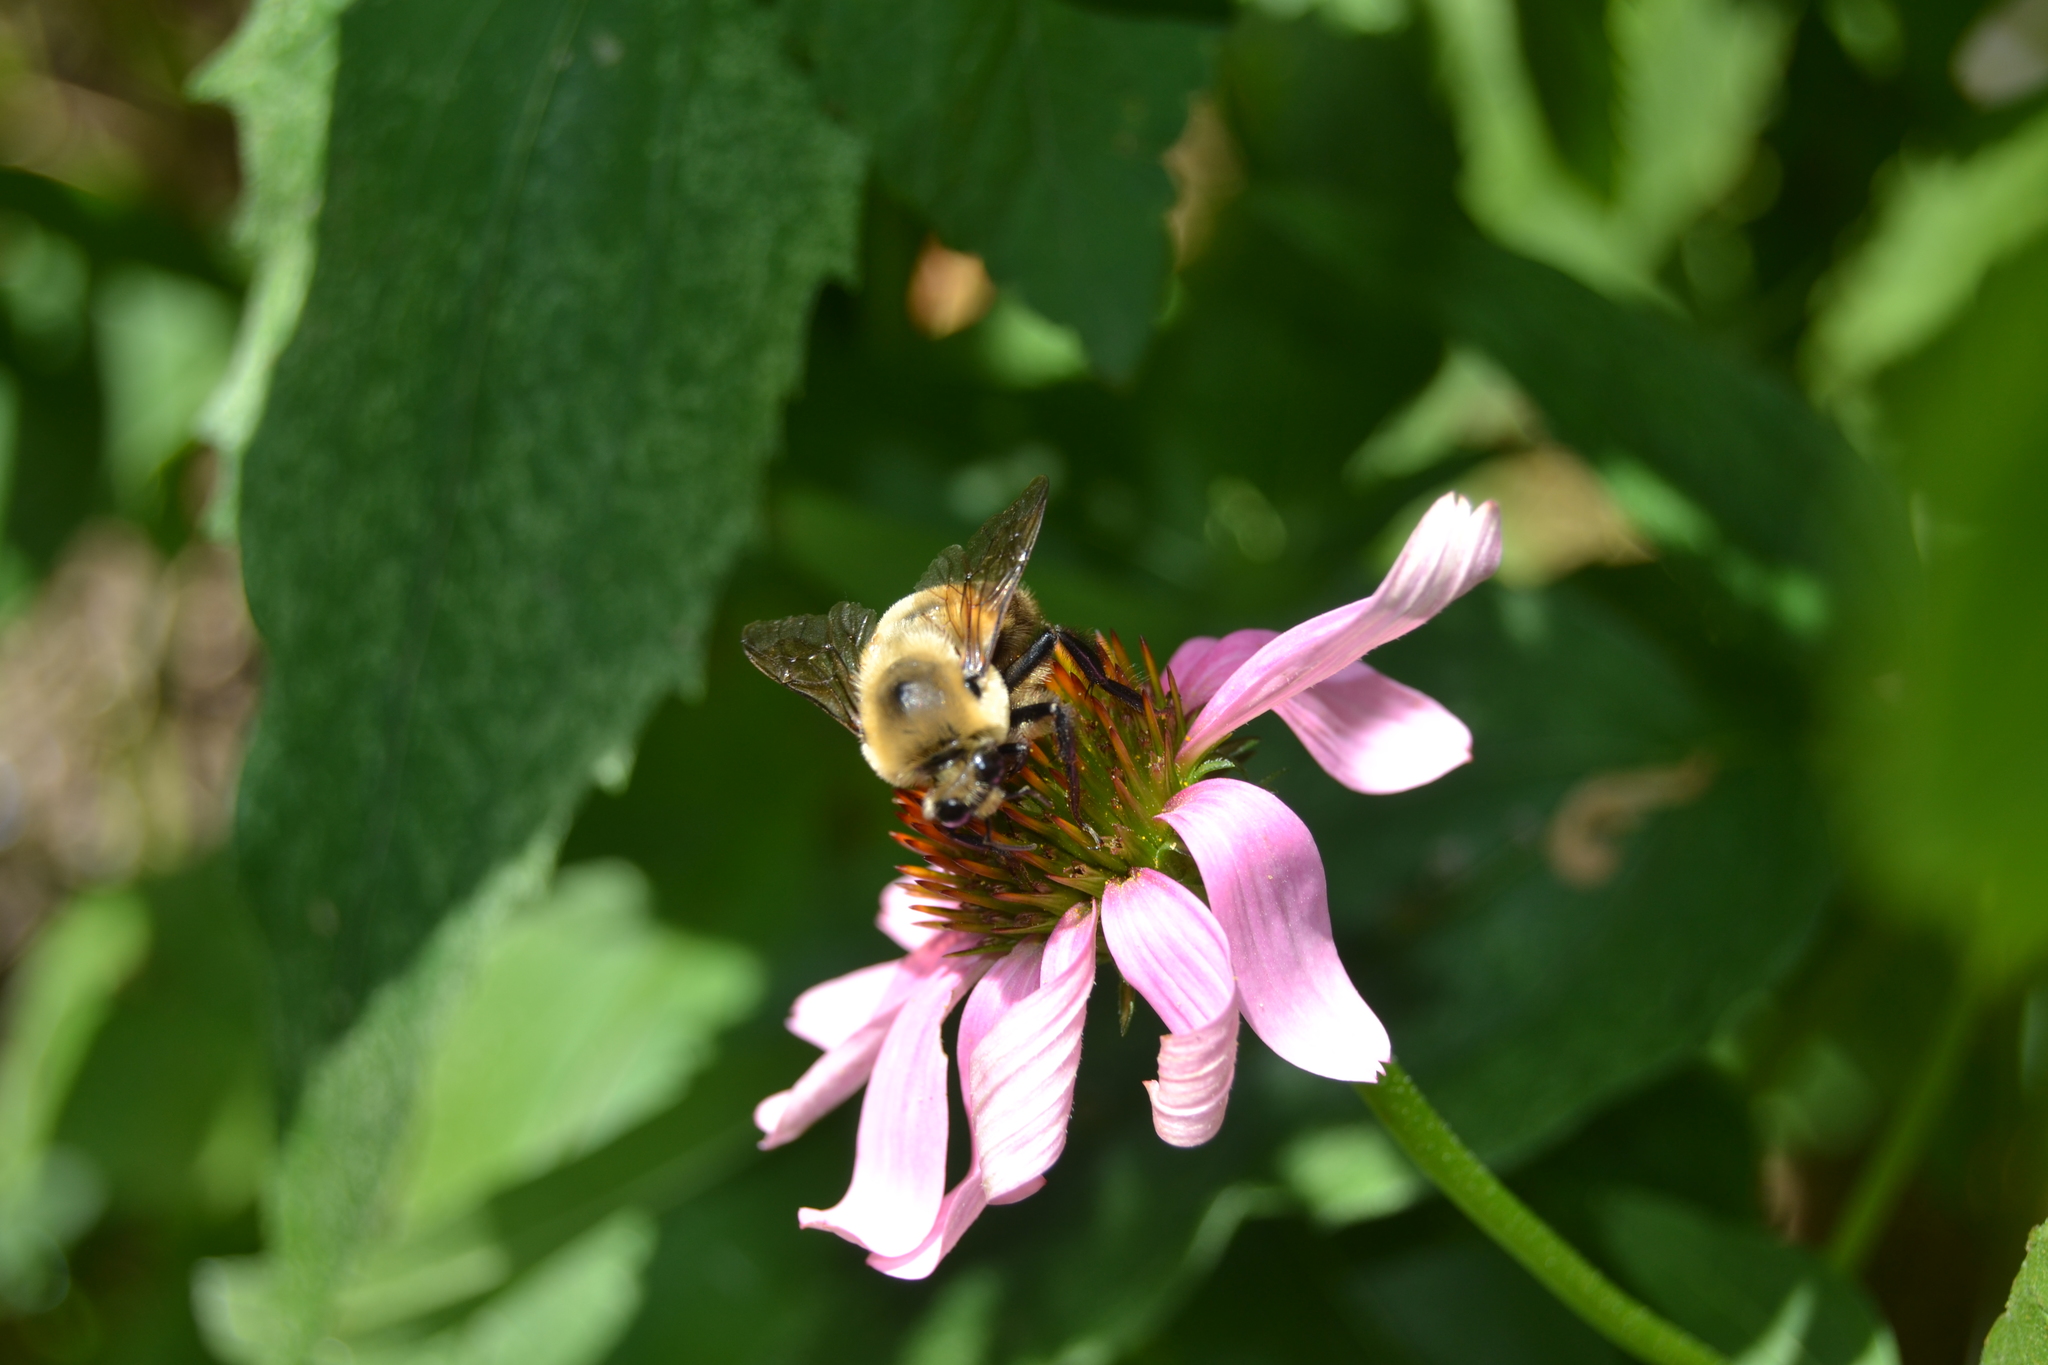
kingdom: Animalia
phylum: Arthropoda
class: Insecta
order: Hymenoptera
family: Apidae
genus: Bombus
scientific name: Bombus griseocollis
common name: Brown-belted bumble bee
